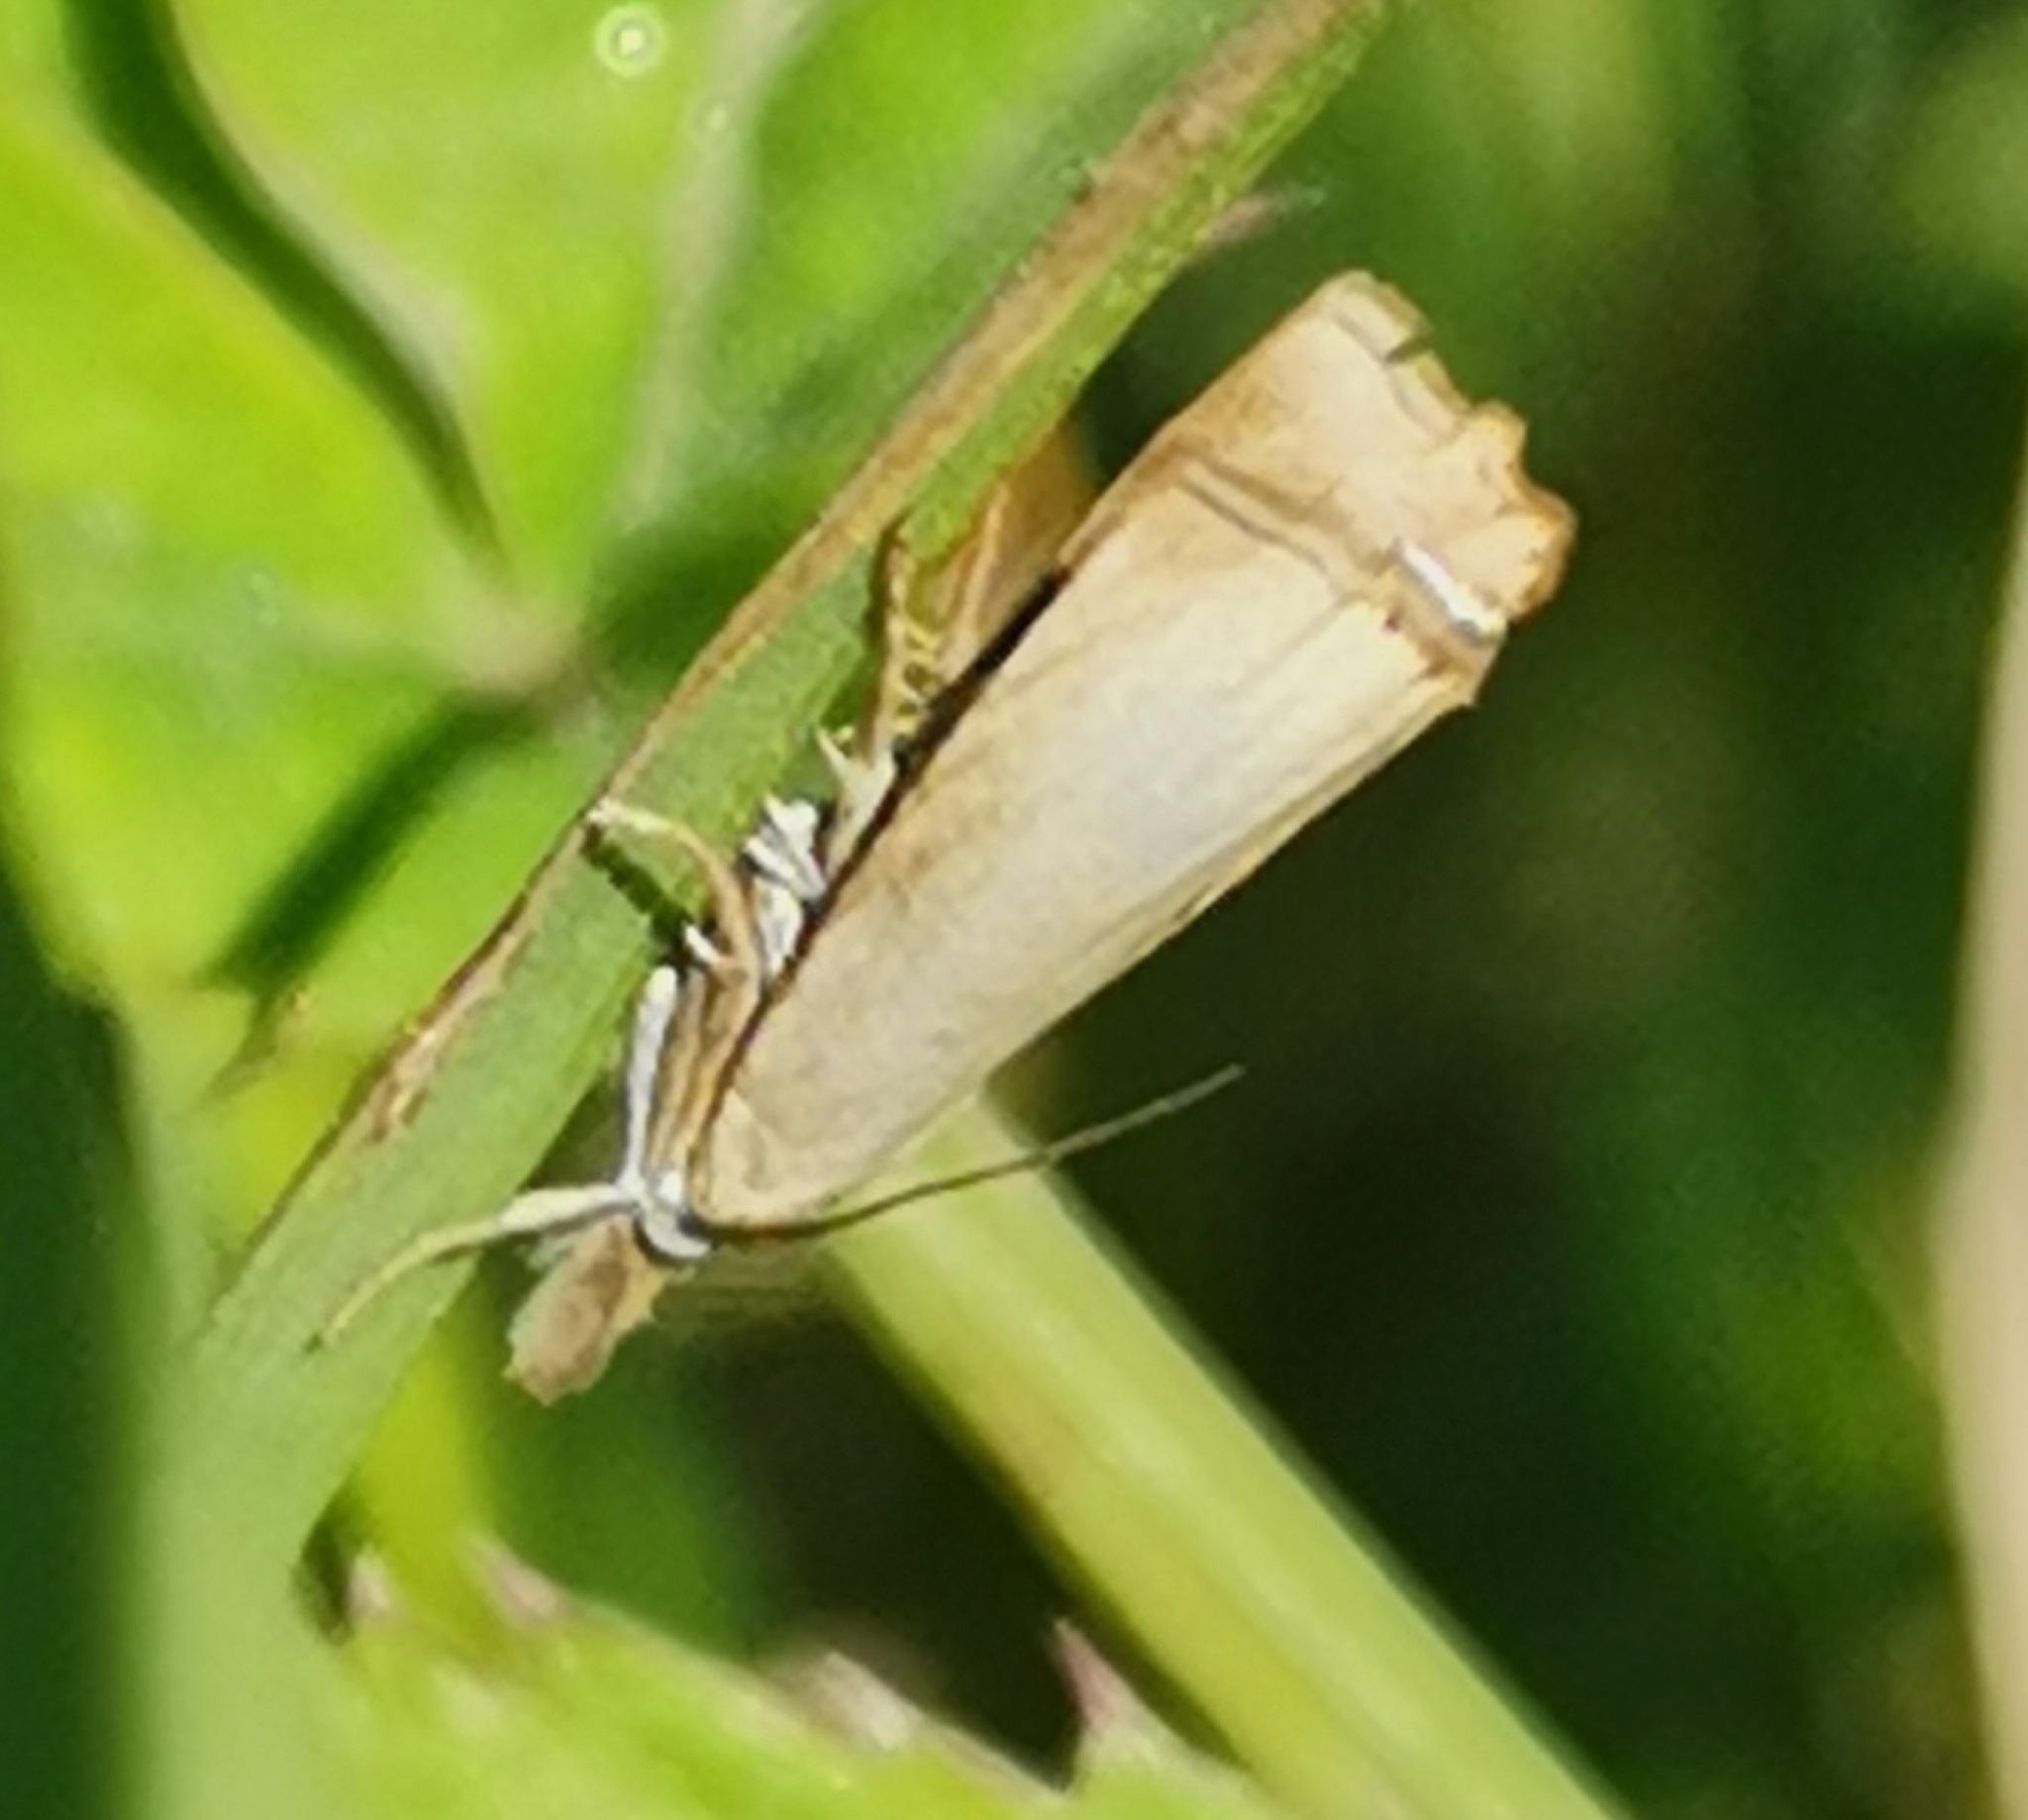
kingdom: Animalia
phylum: Arthropoda
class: Insecta
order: Lepidoptera
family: Crambidae
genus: Agriphila
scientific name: Agriphila straminella
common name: Straw grass-veneer
